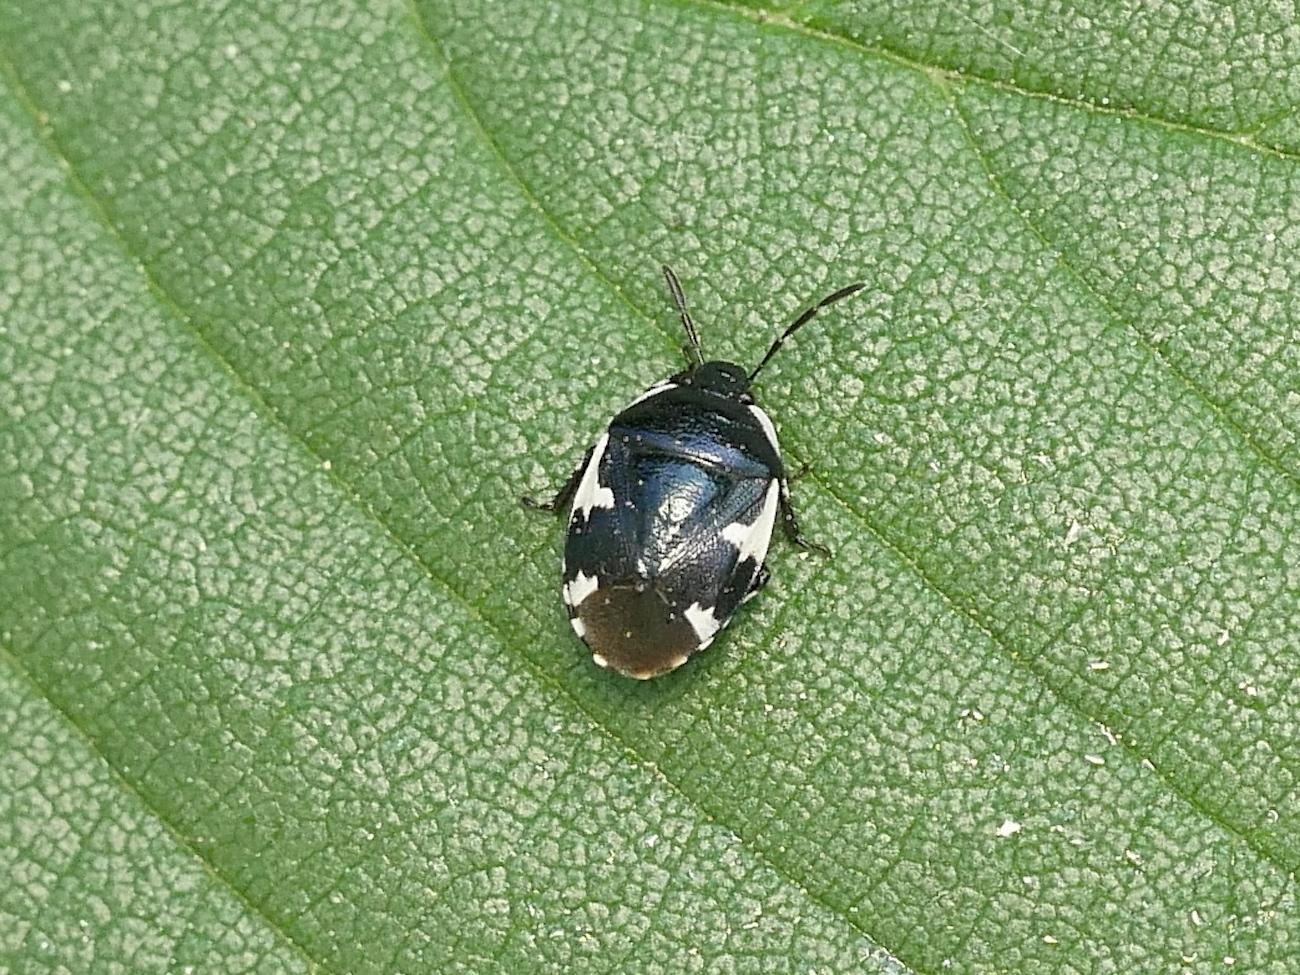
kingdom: Animalia
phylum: Arthropoda
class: Insecta
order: Hemiptera
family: Cydnidae
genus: Tritomegas
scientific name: Tritomegas sexmaculatus
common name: Rambur's pied shieldbug
